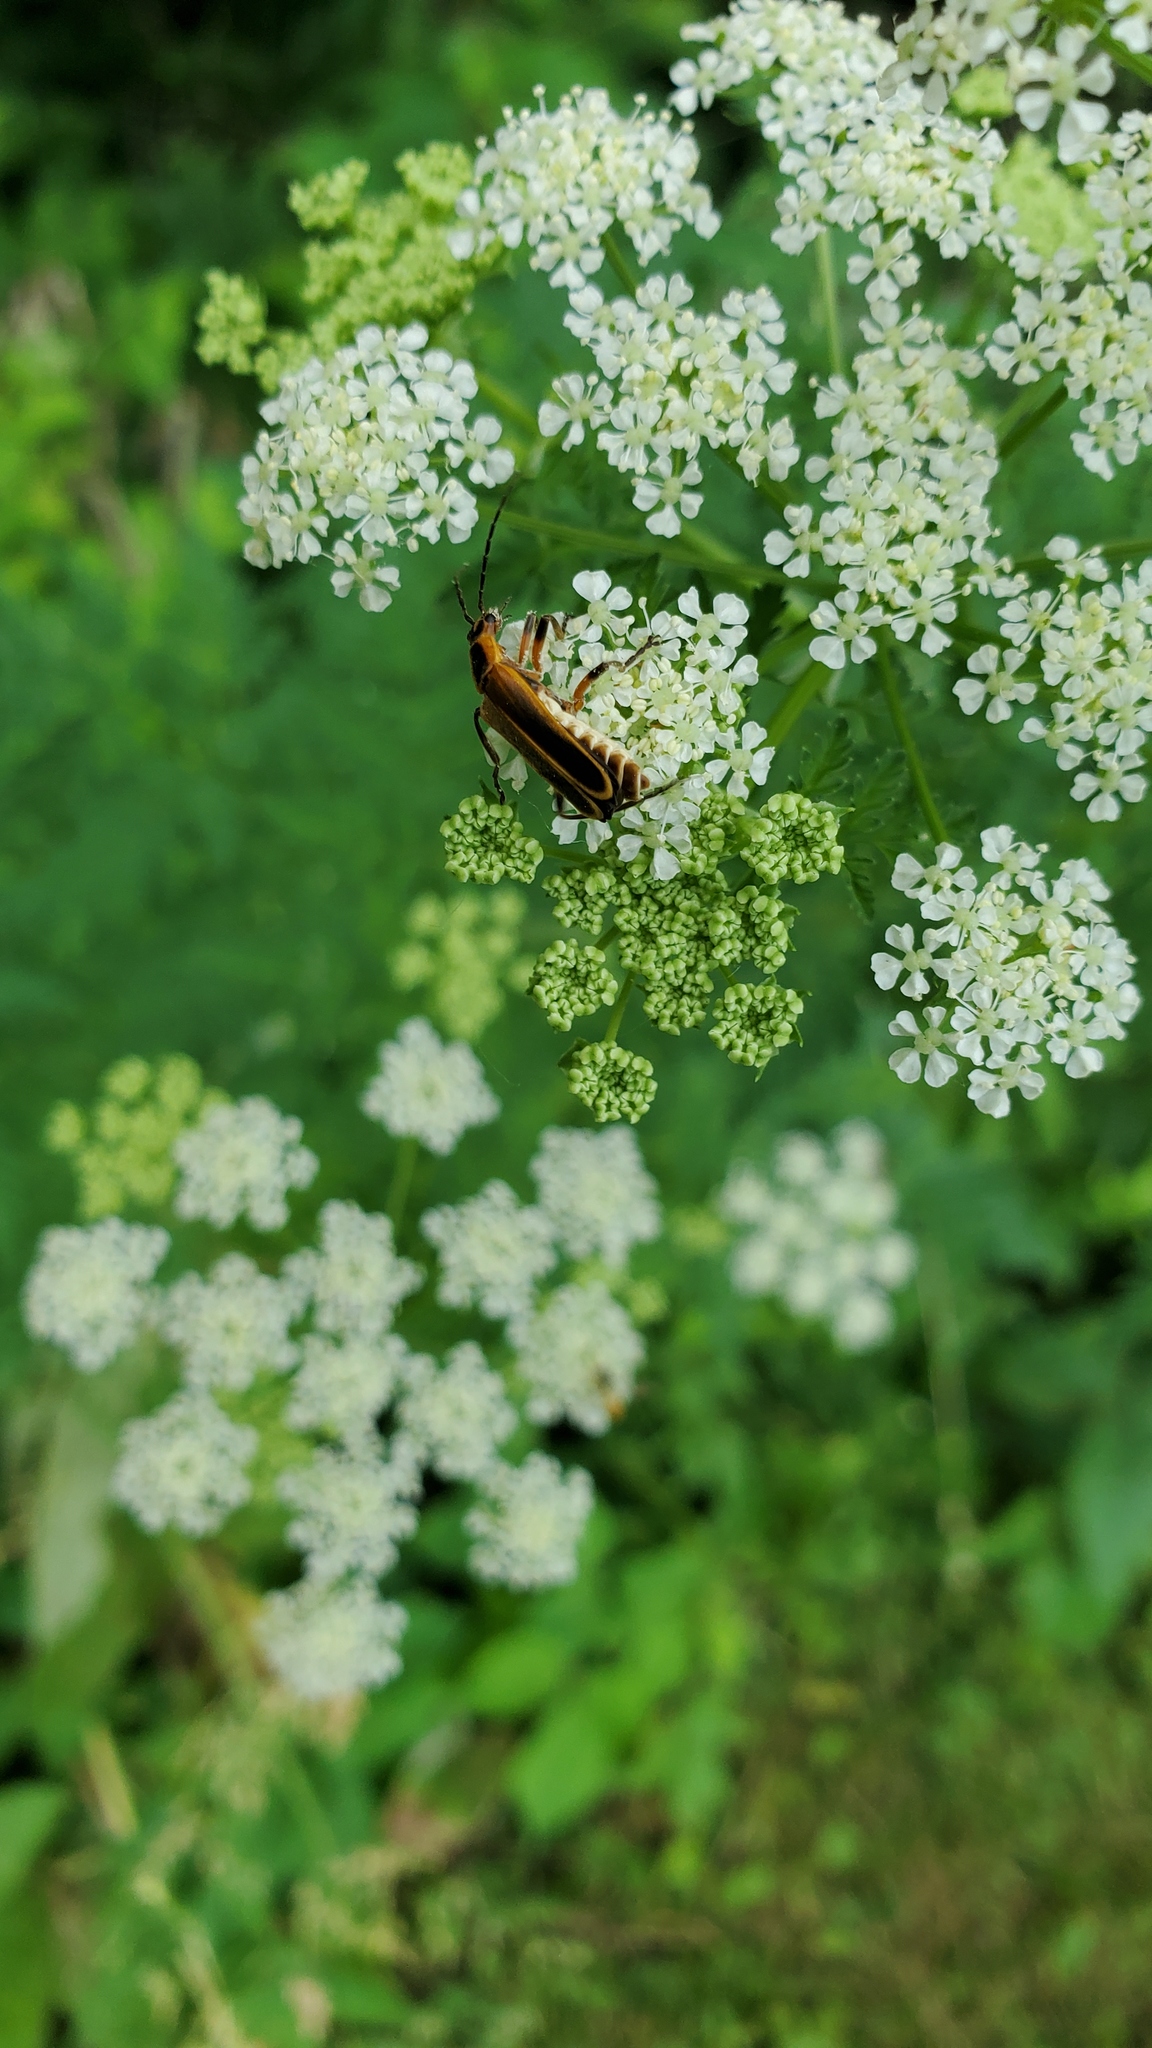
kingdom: Animalia
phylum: Arthropoda
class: Insecta
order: Coleoptera
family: Cantharidae
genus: Chauliognathus
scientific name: Chauliognathus marginatus
